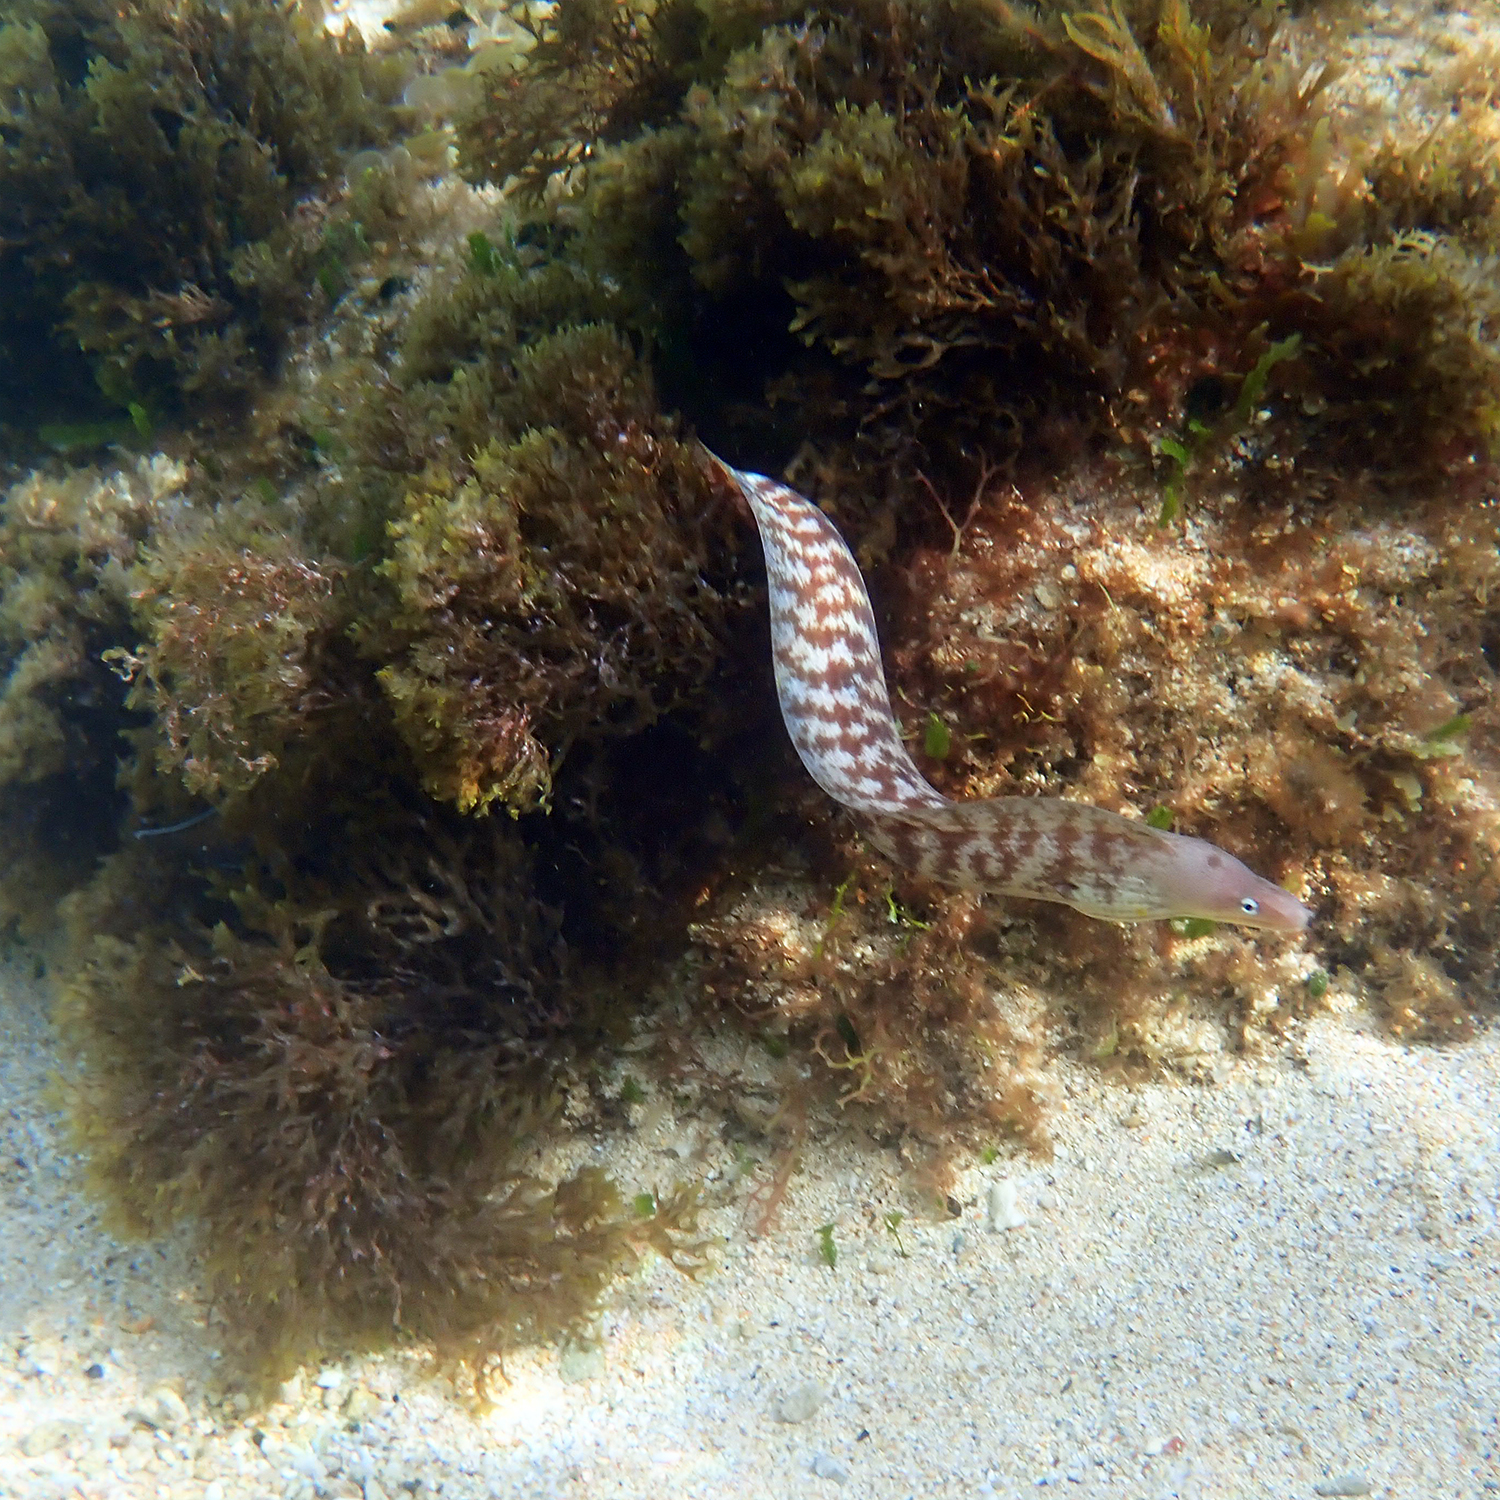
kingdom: Animalia
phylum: Chordata
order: Anguilliformes
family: Muraenidae
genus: Gymnothorax
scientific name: Gymnothorax nubilus
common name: Grey moray
